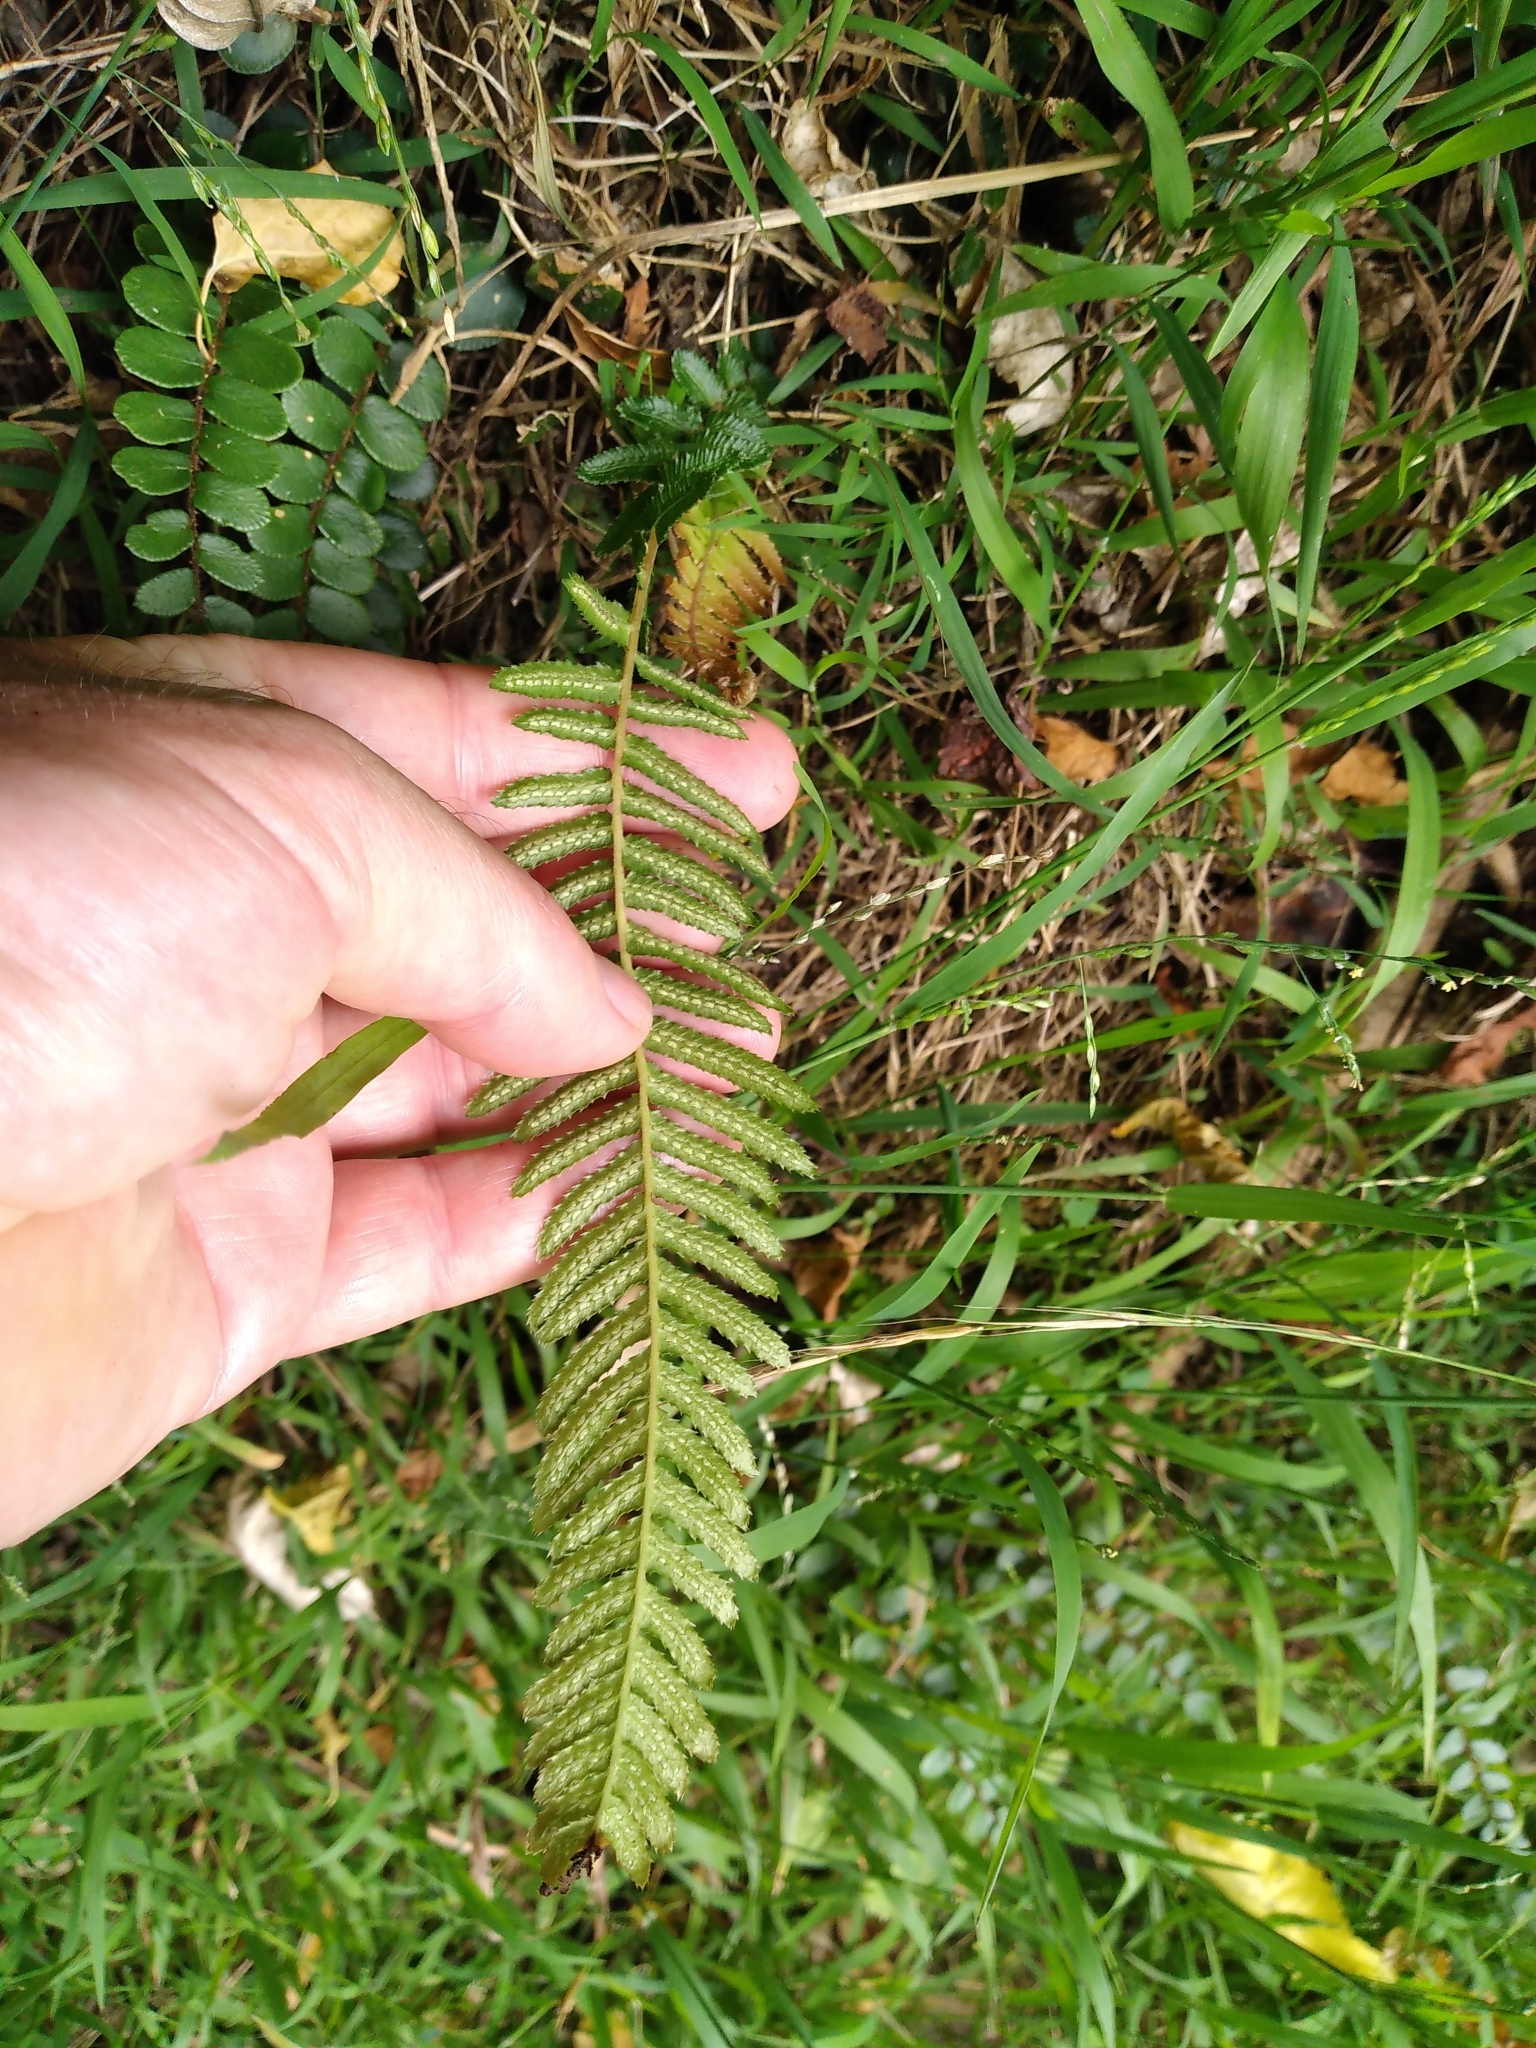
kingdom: Plantae
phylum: Tracheophyta
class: Polypodiopsida
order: Polypodiales
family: Blechnaceae
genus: Doodia
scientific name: Doodia australis
